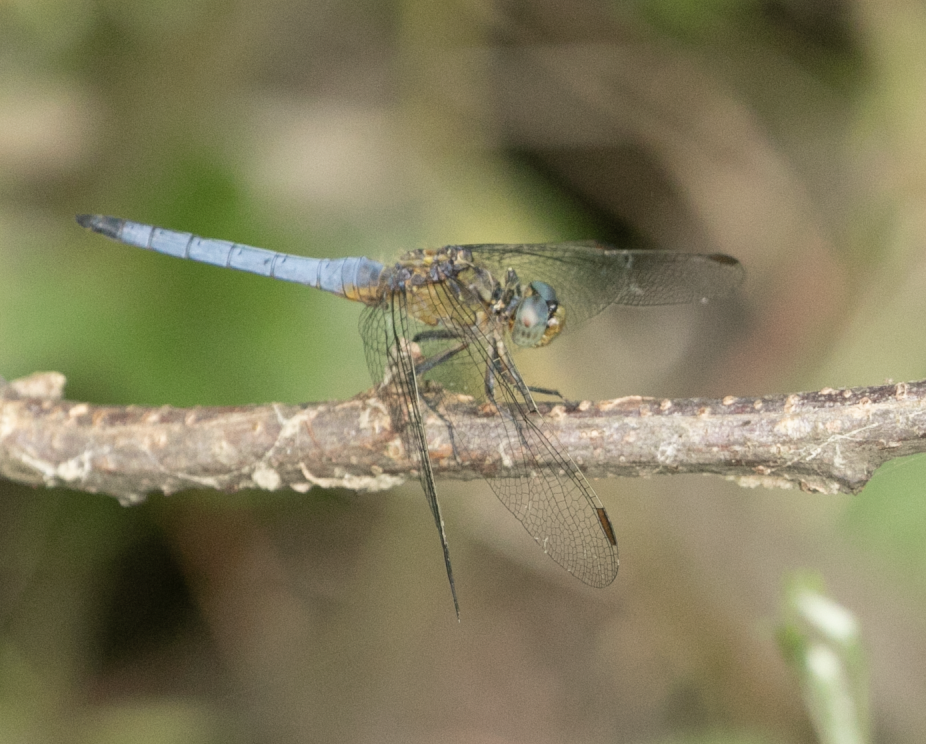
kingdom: Animalia
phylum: Arthropoda
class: Insecta
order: Odonata
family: Libellulidae
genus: Orthetrum
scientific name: Orthetrum coerulescens
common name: Keeled skimmer
